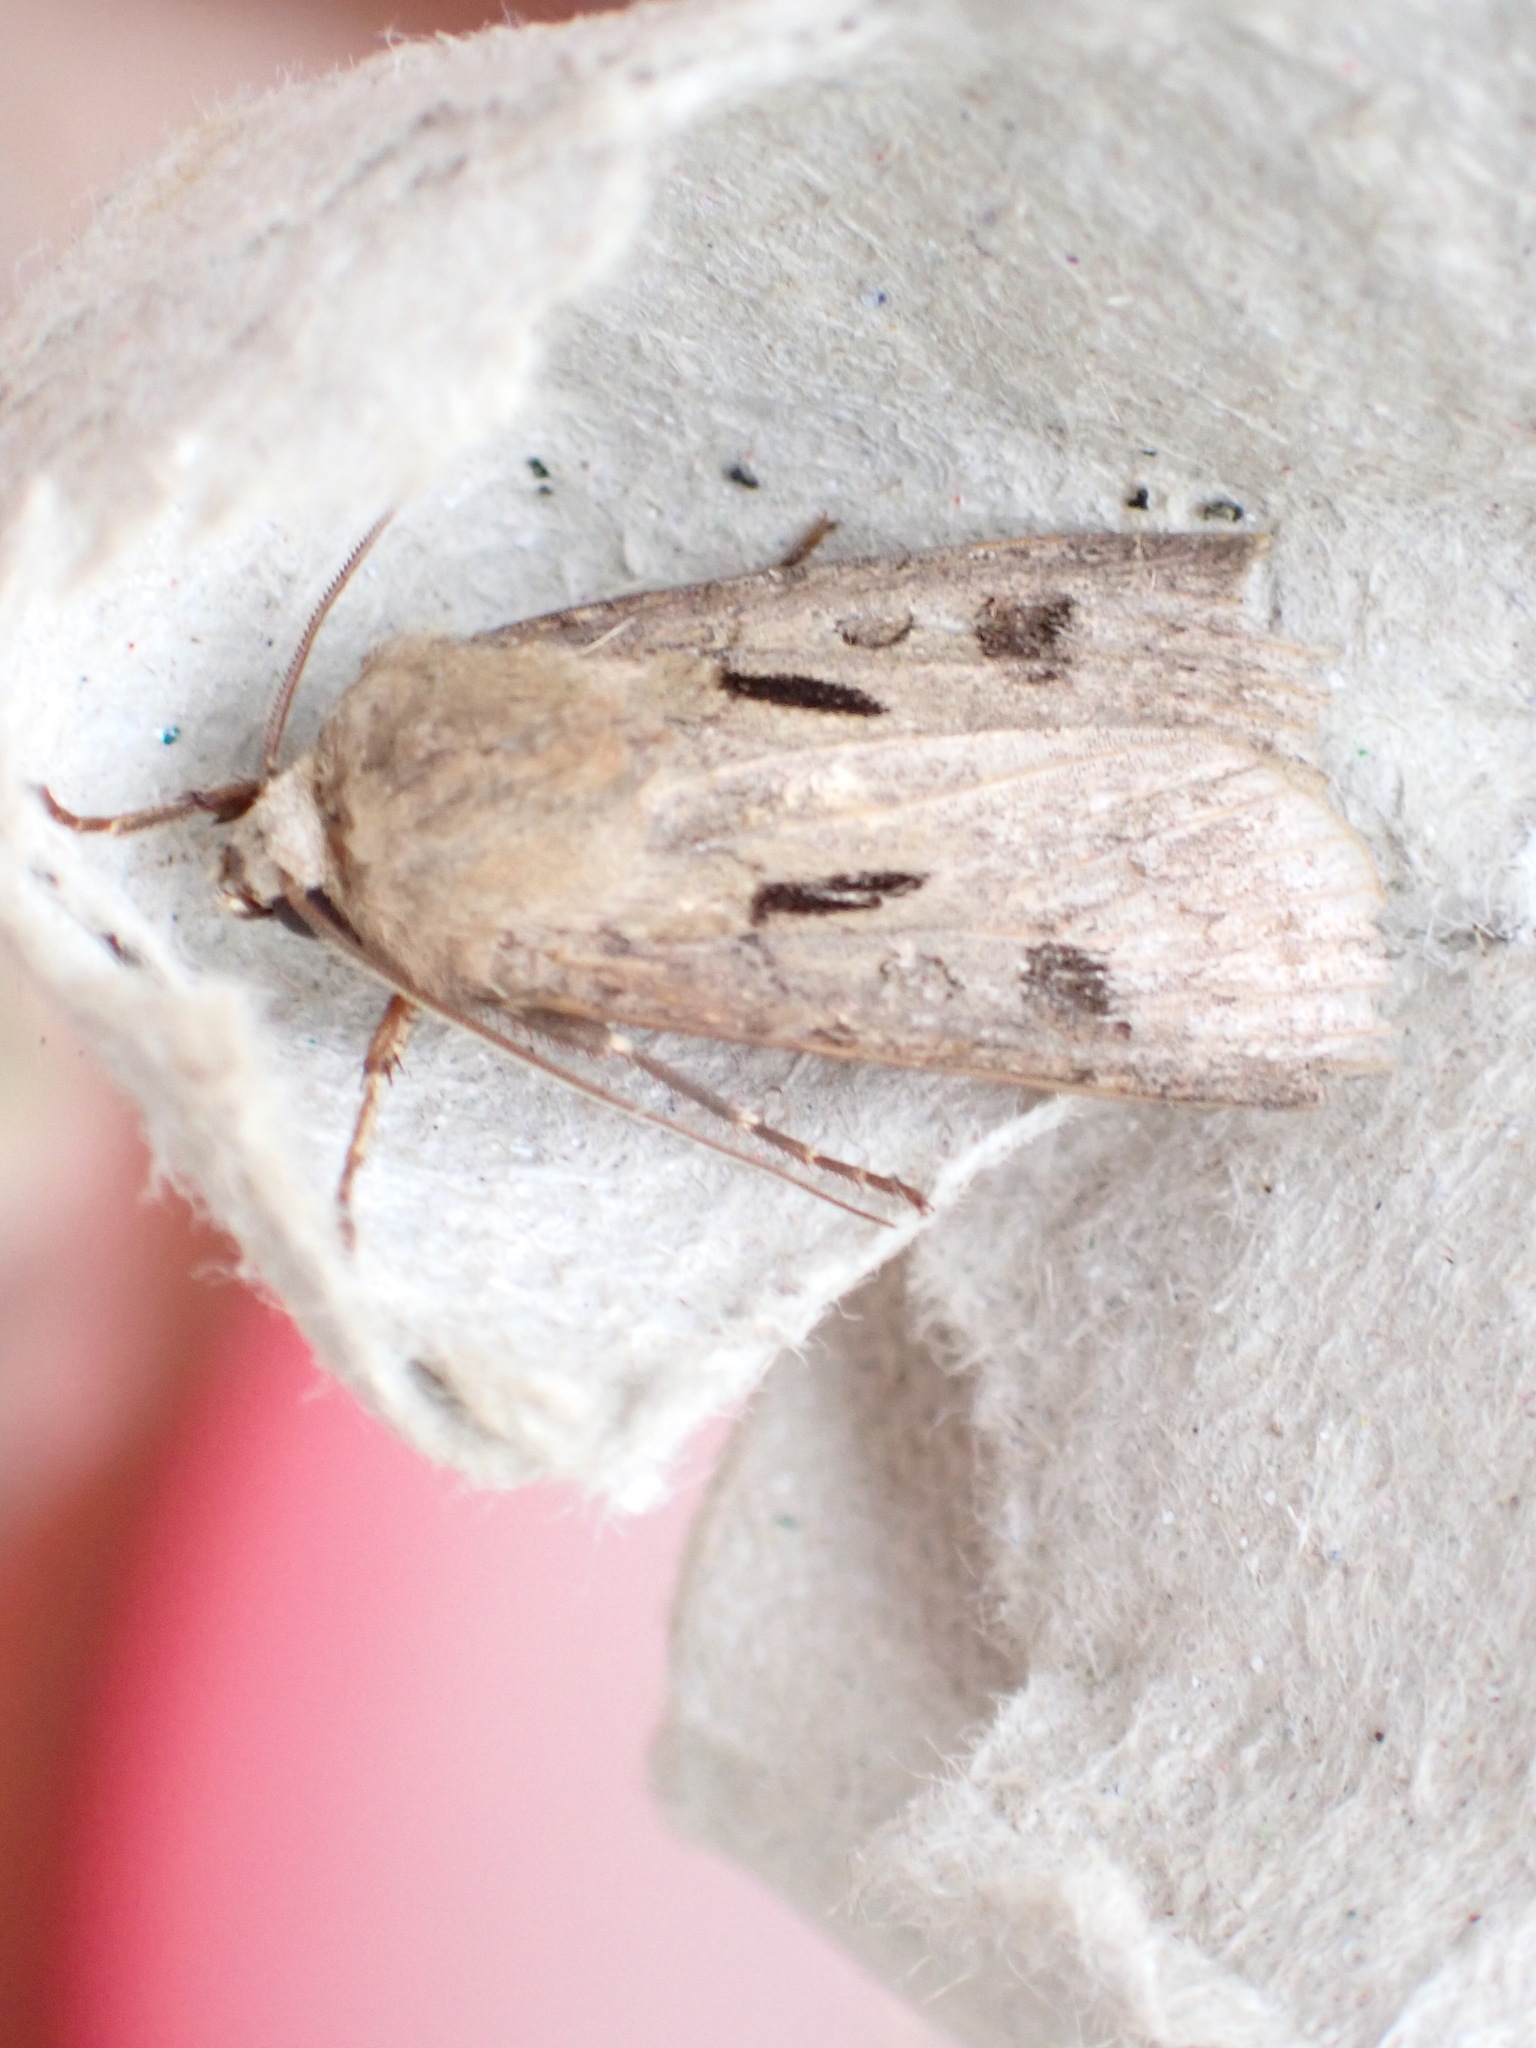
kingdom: Animalia
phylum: Arthropoda
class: Insecta
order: Lepidoptera
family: Noctuidae
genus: Agrotis
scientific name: Agrotis exclamationis
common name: Heart and dart
